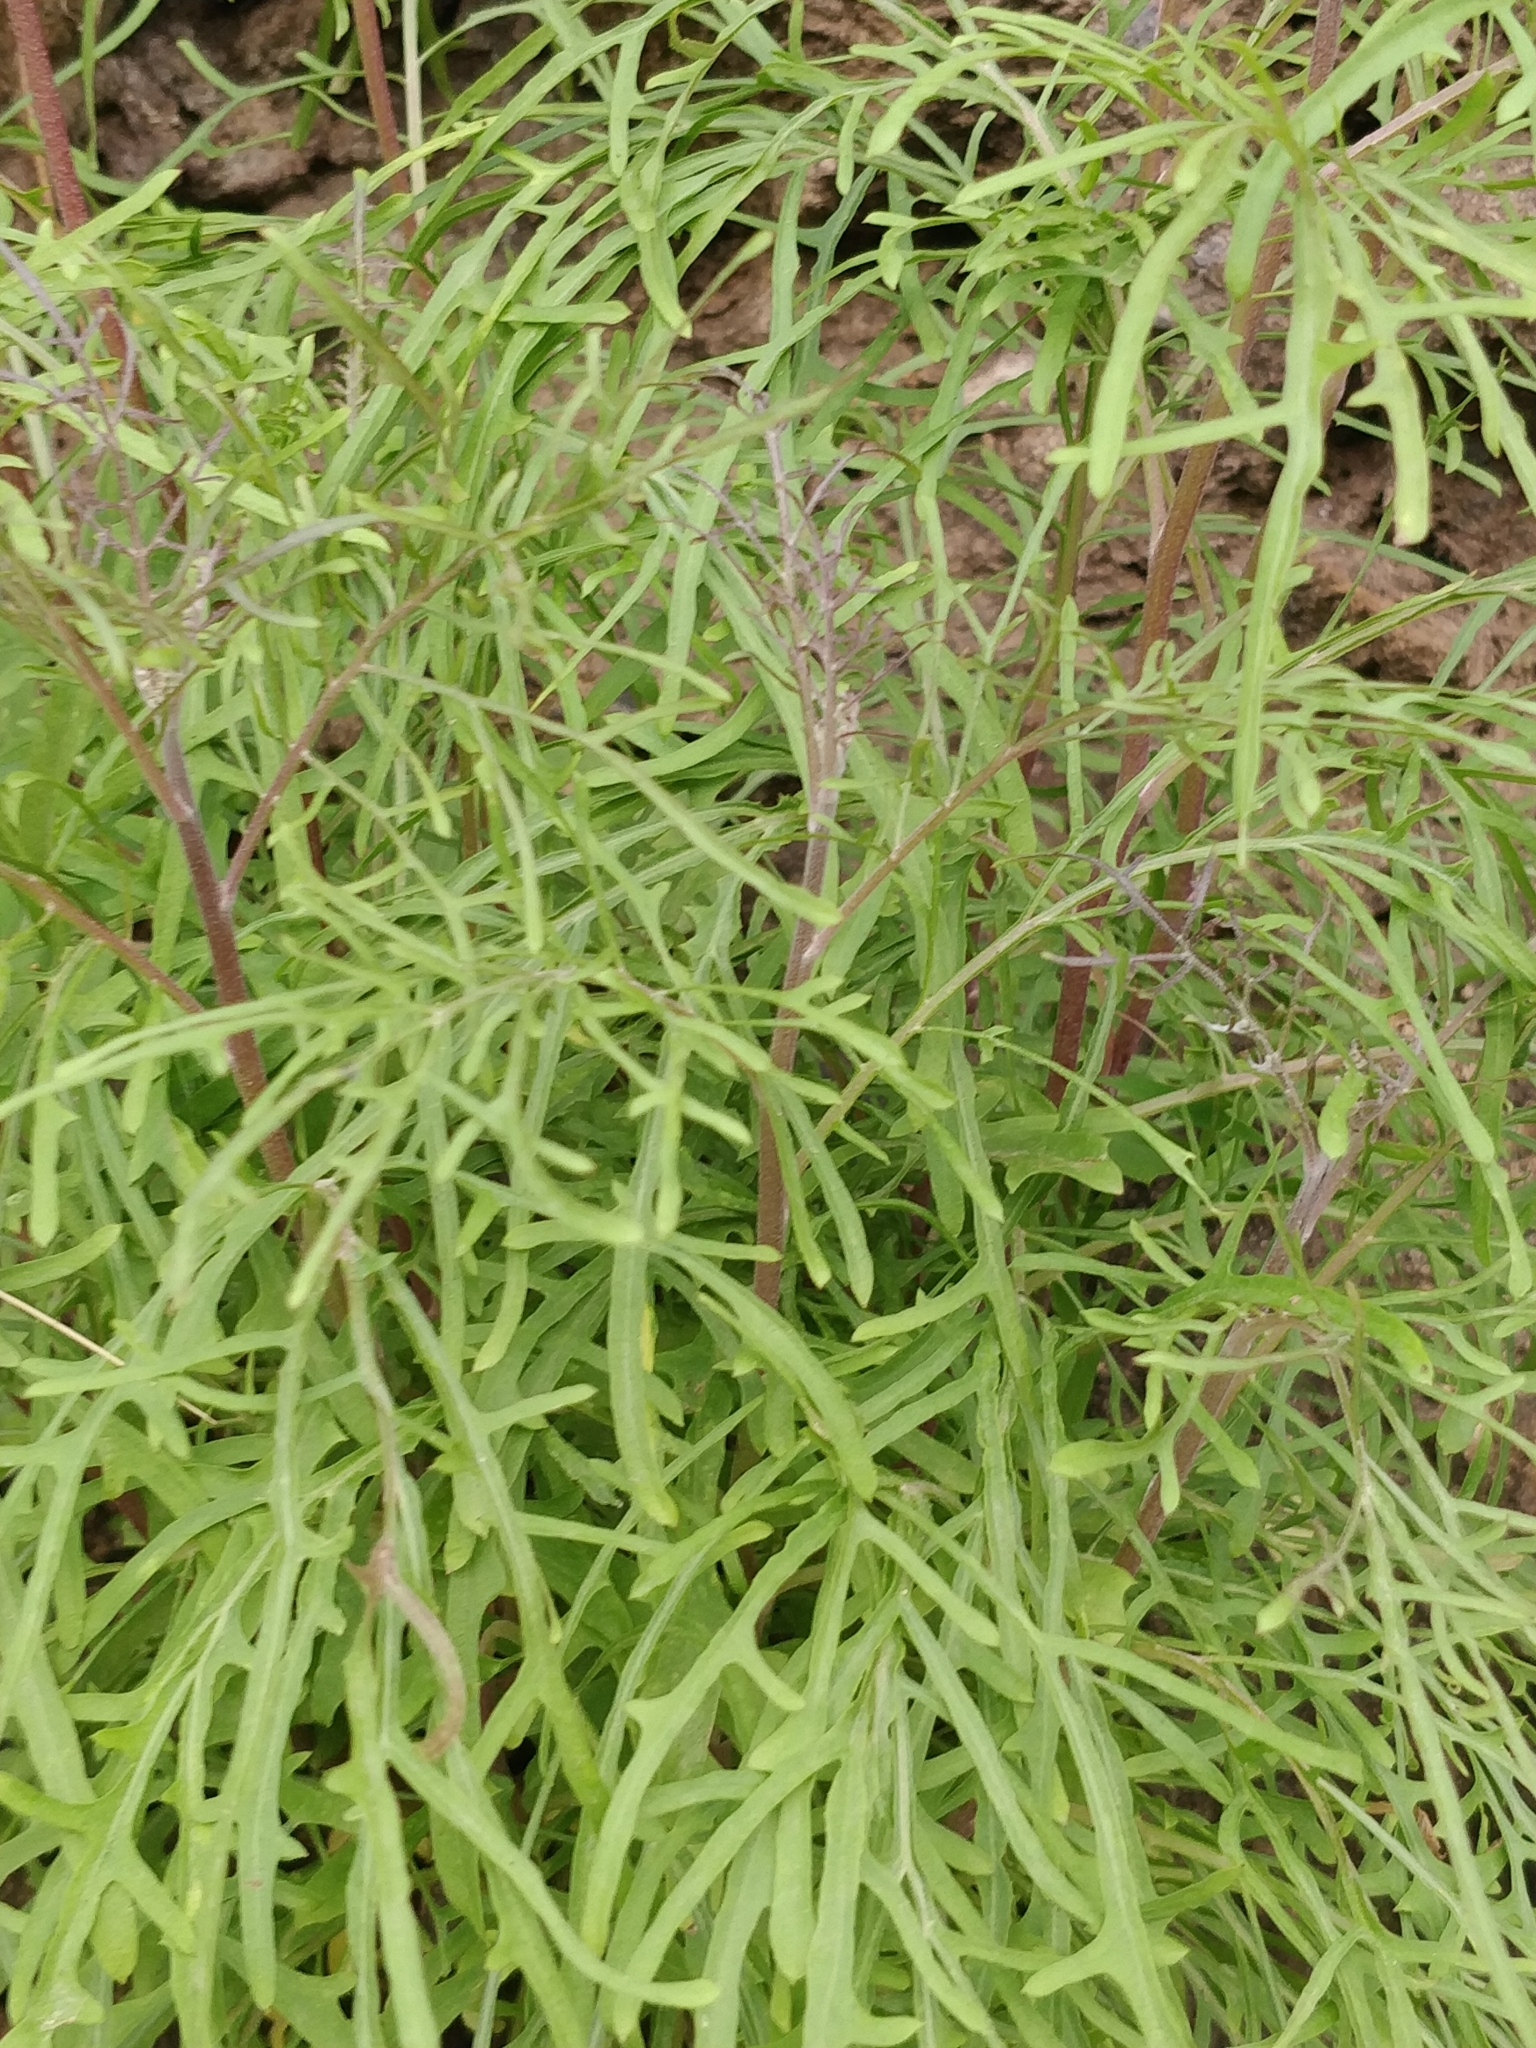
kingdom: Plantae
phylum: Tracheophyta
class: Magnoliopsida
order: Asterales
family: Asteraceae
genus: Tolpis
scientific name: Tolpis succulenta
